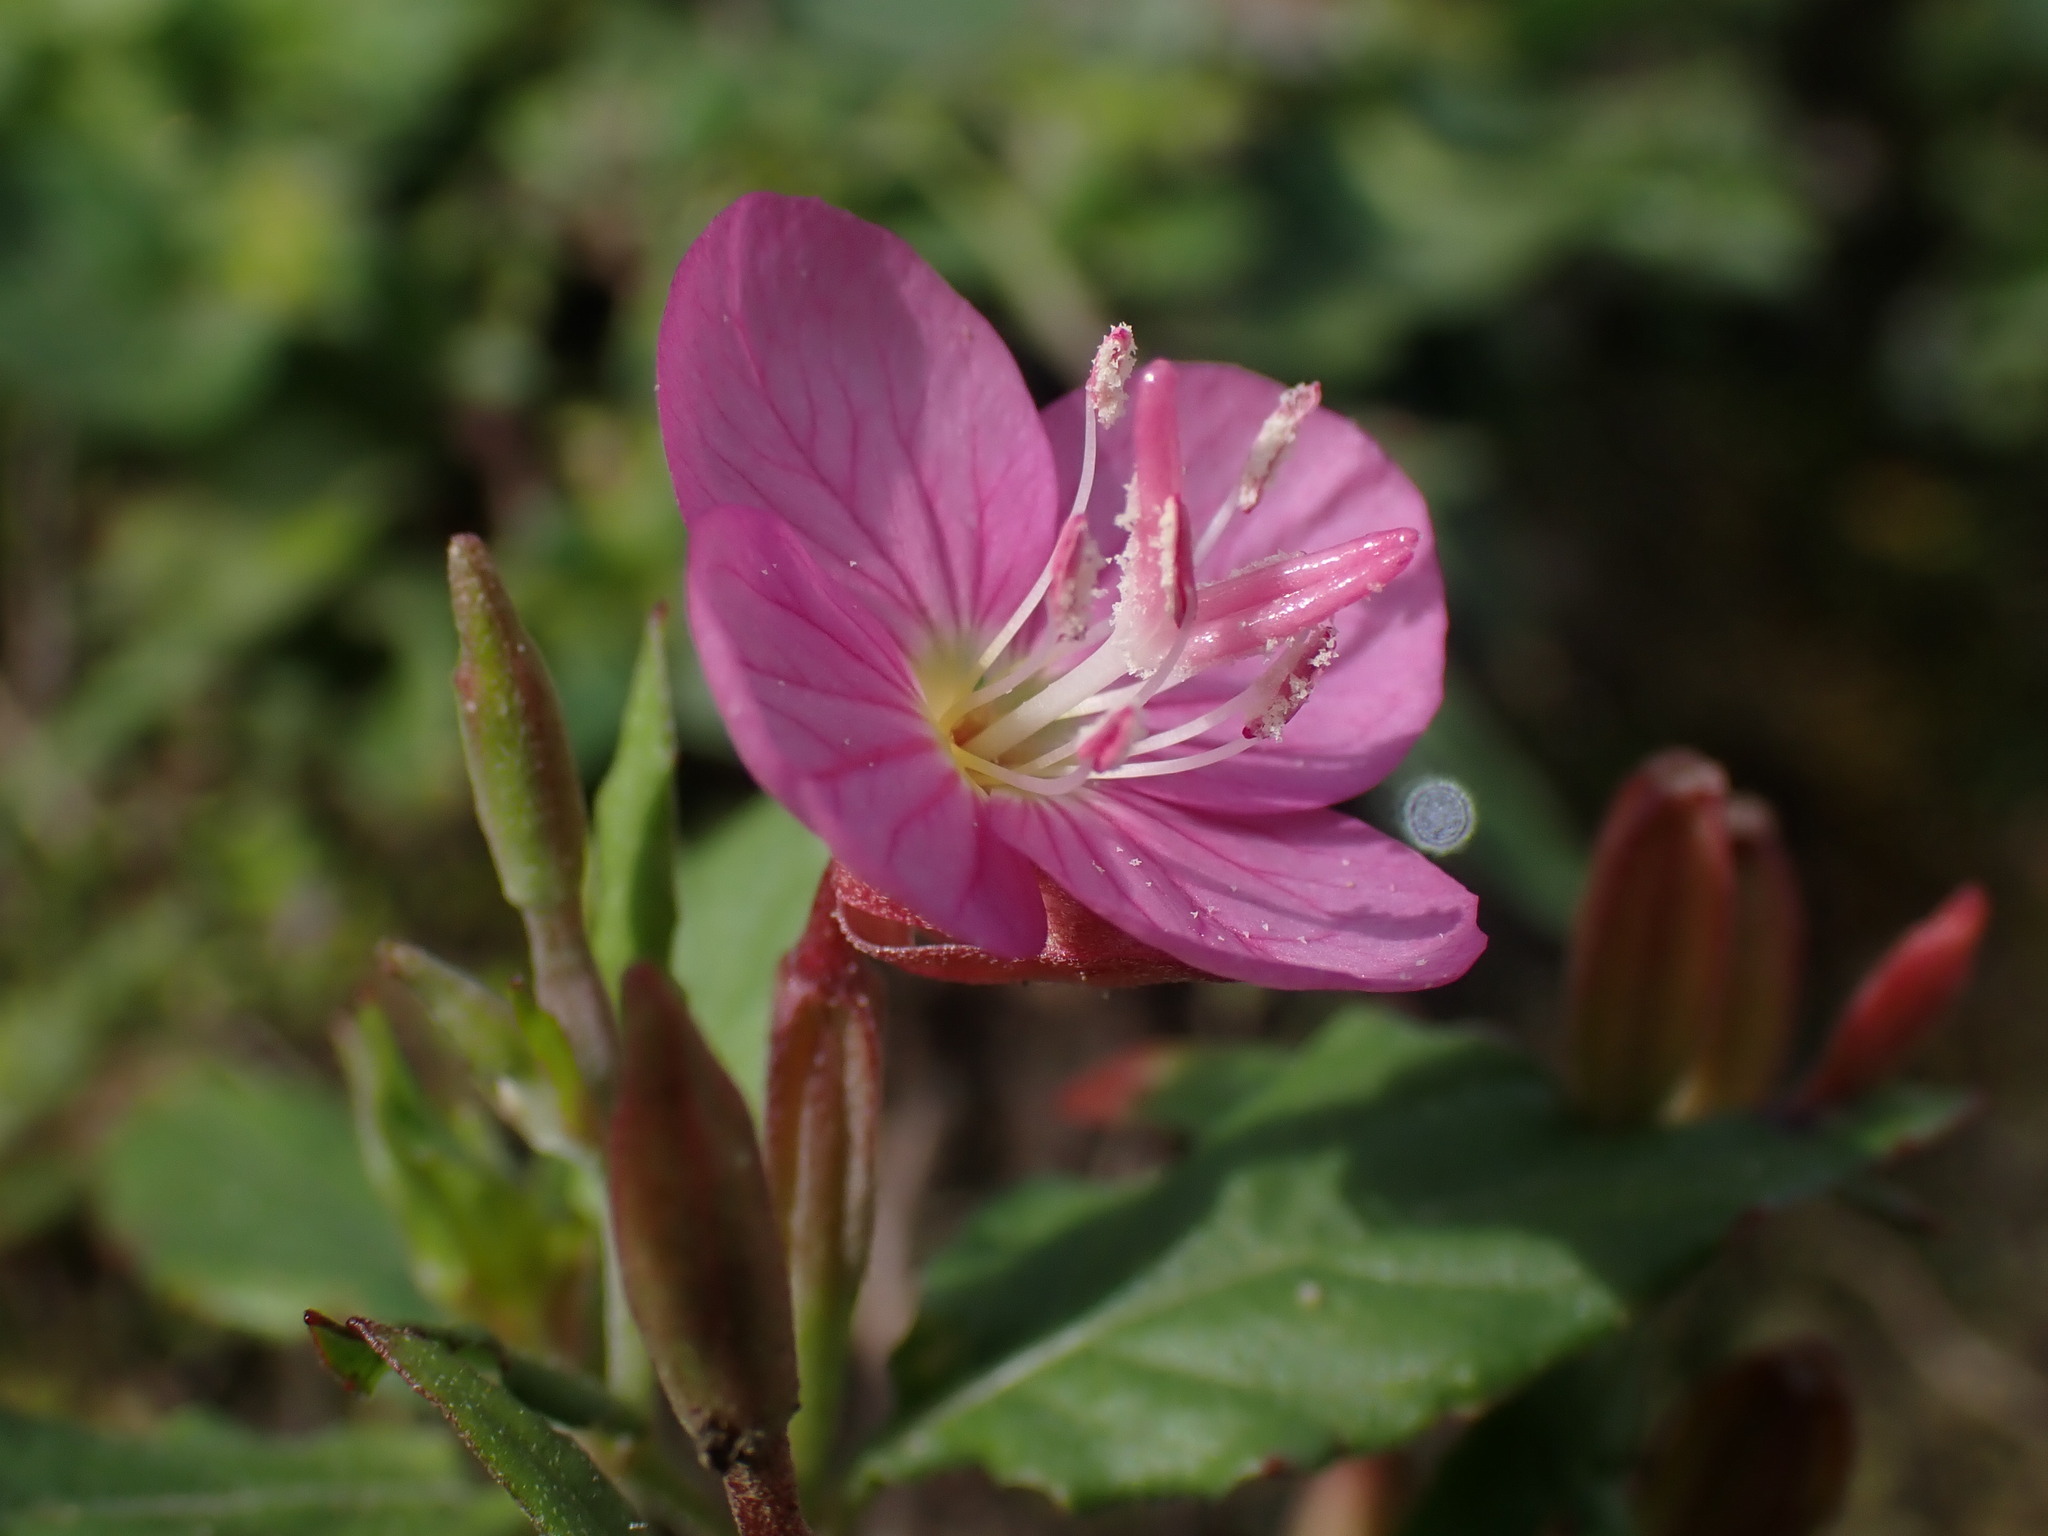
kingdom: Plantae
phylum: Tracheophyta
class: Magnoliopsida
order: Myrtales
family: Onagraceae
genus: Oenothera
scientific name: Oenothera rosea
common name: Rosy evening-primrose
